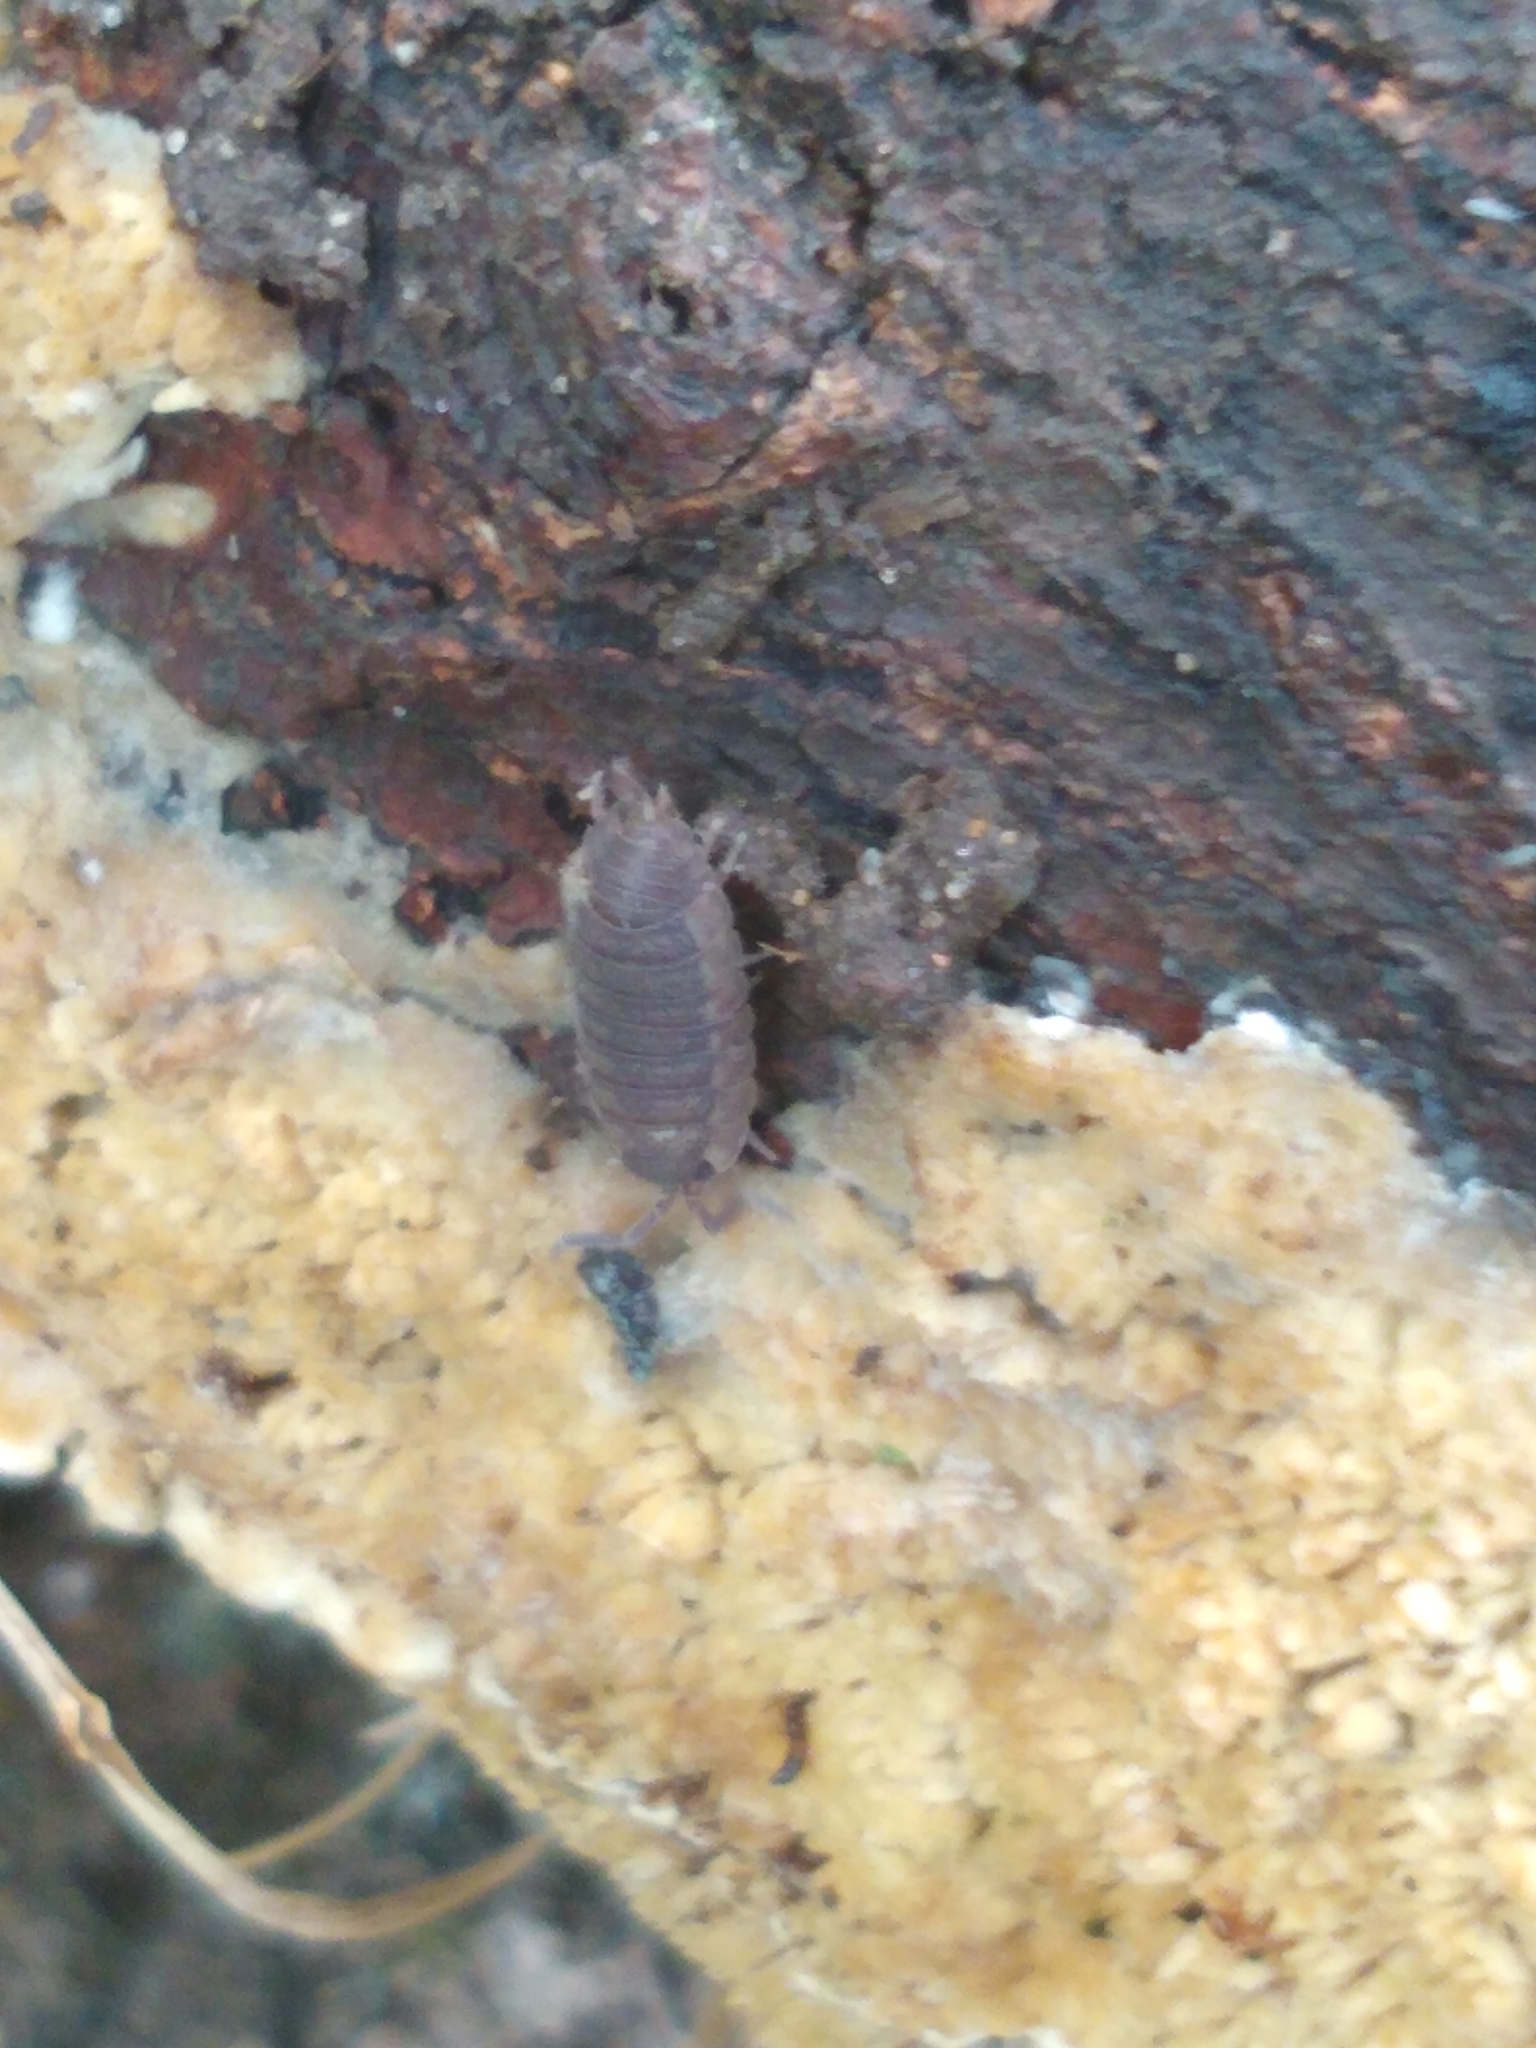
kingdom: Animalia
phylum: Arthropoda
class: Malacostraca
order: Isopoda
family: Porcellionidae
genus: Porcellio
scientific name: Porcellio scaber
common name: Common rough woodlouse
